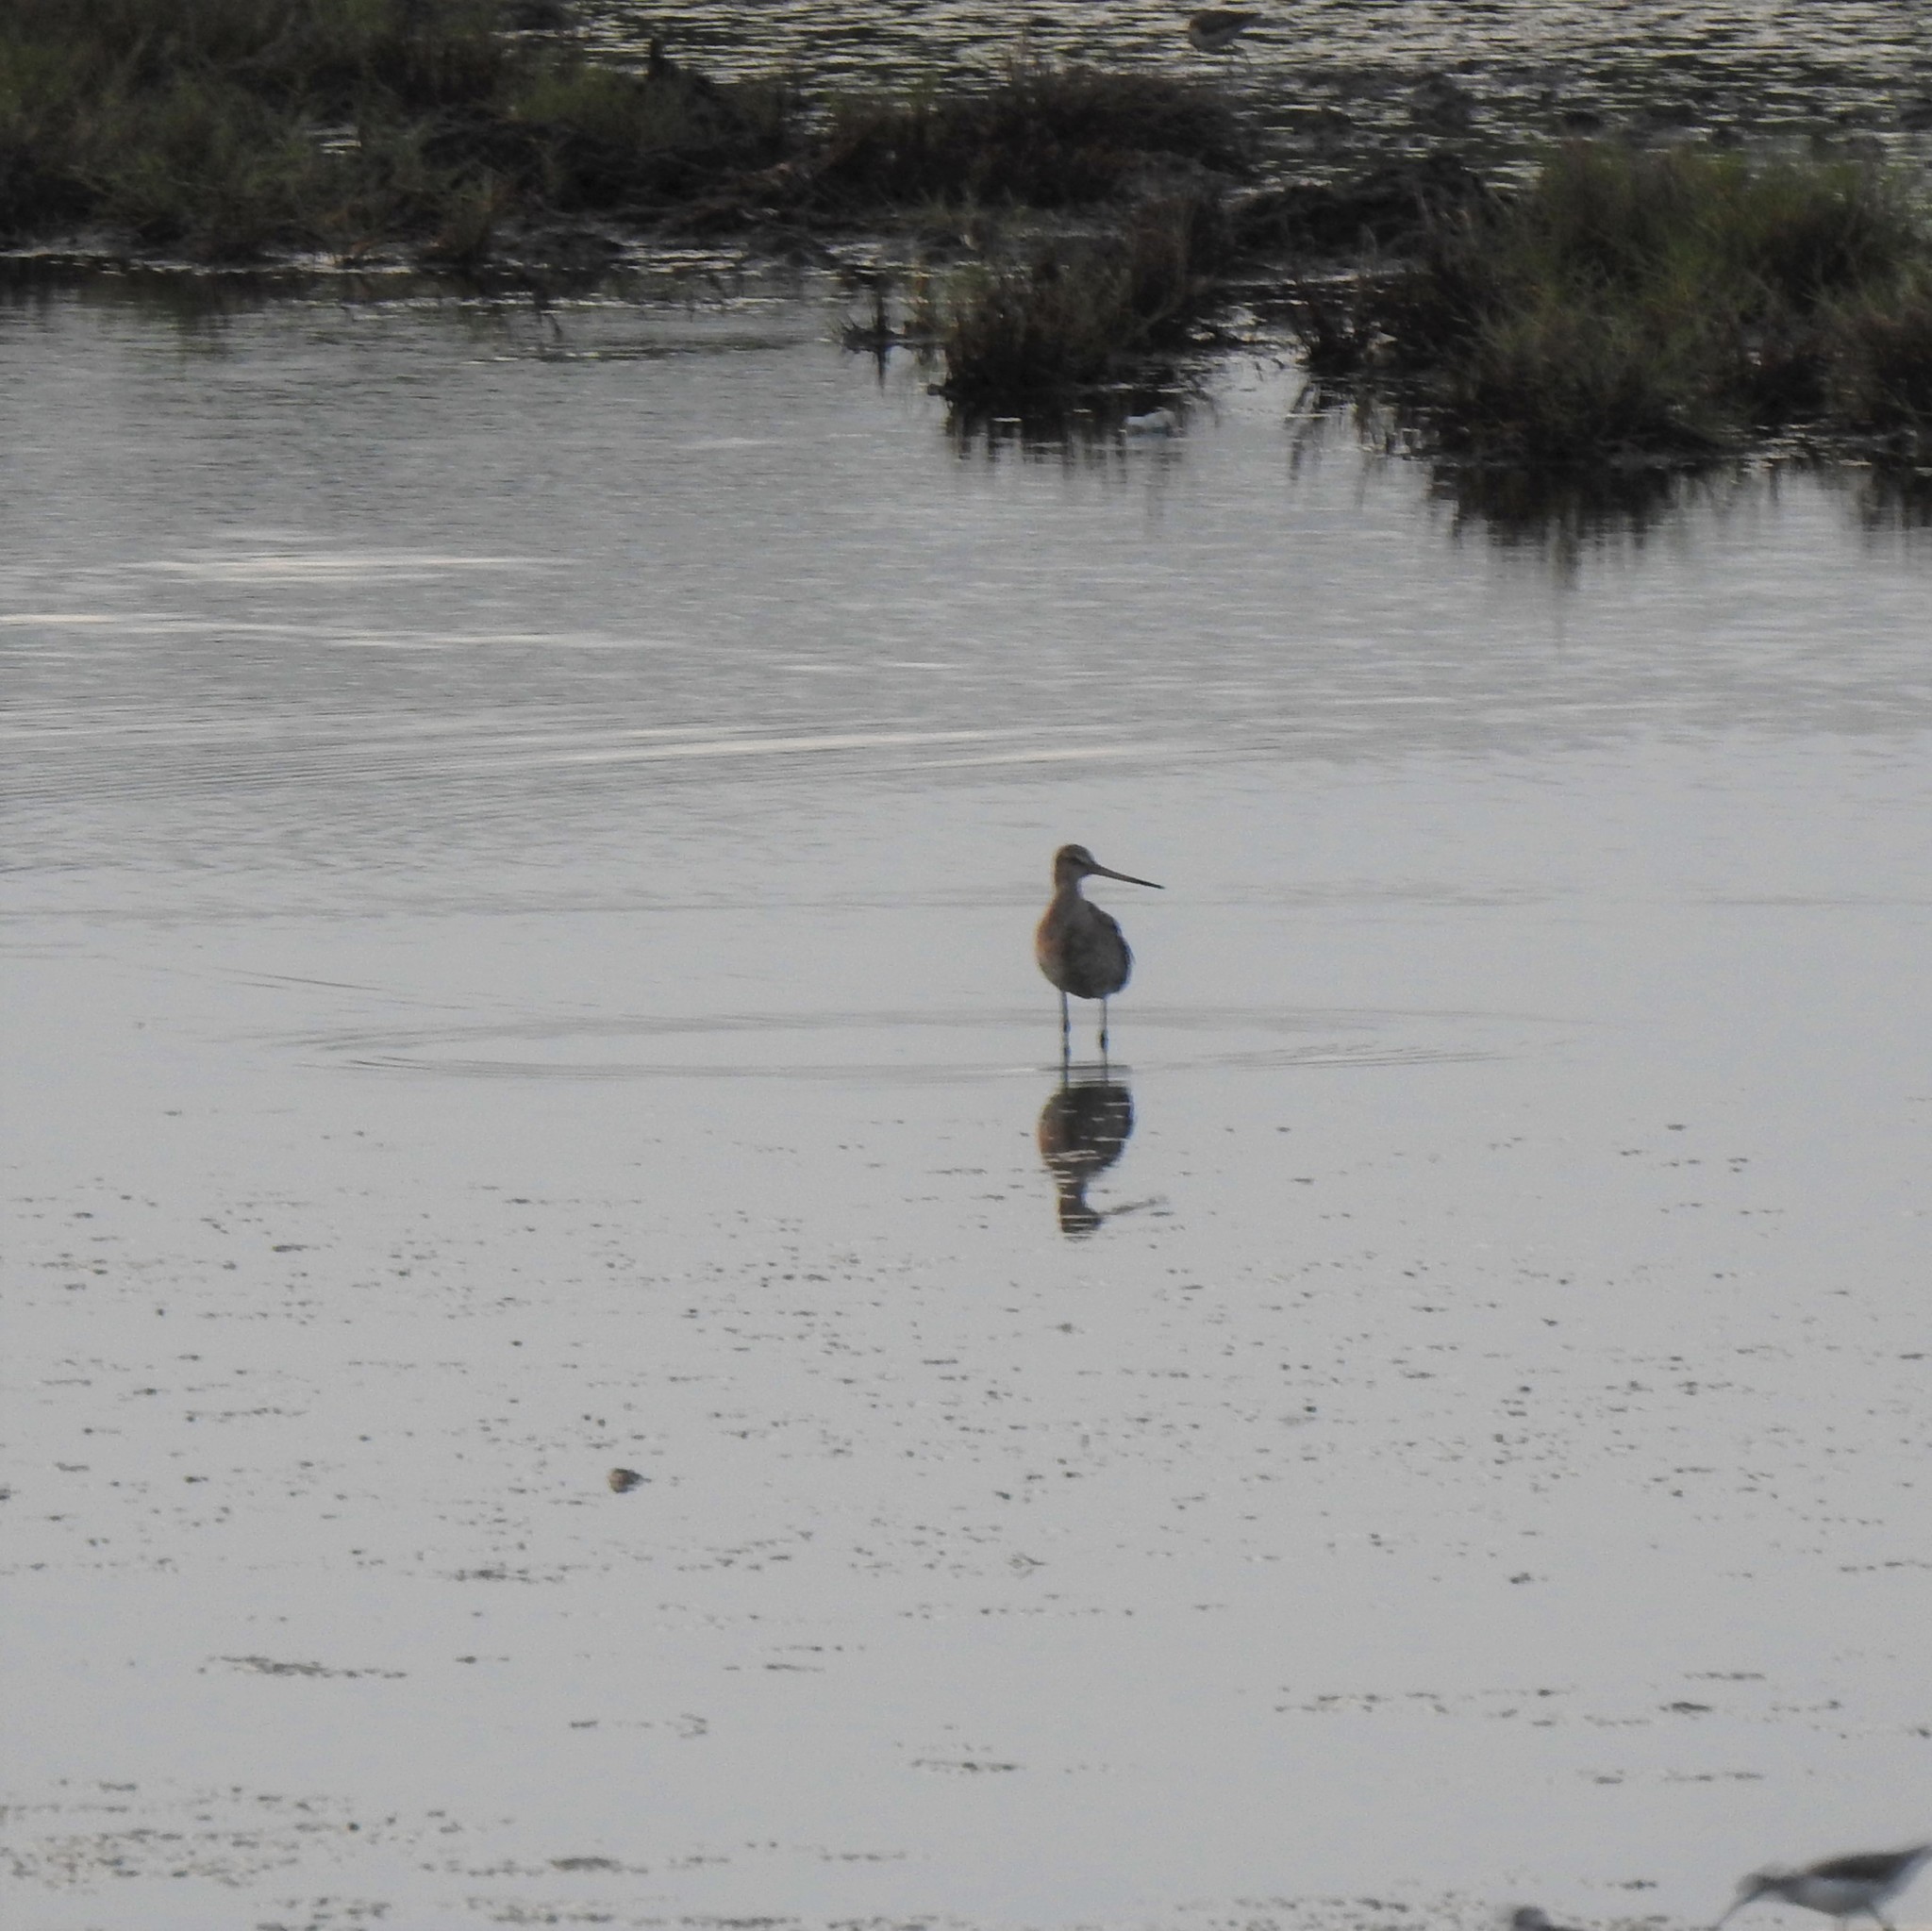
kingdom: Animalia
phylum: Chordata
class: Aves
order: Charadriiformes
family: Scolopacidae
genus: Limosa
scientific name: Limosa limosa
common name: Black-tailed godwit
